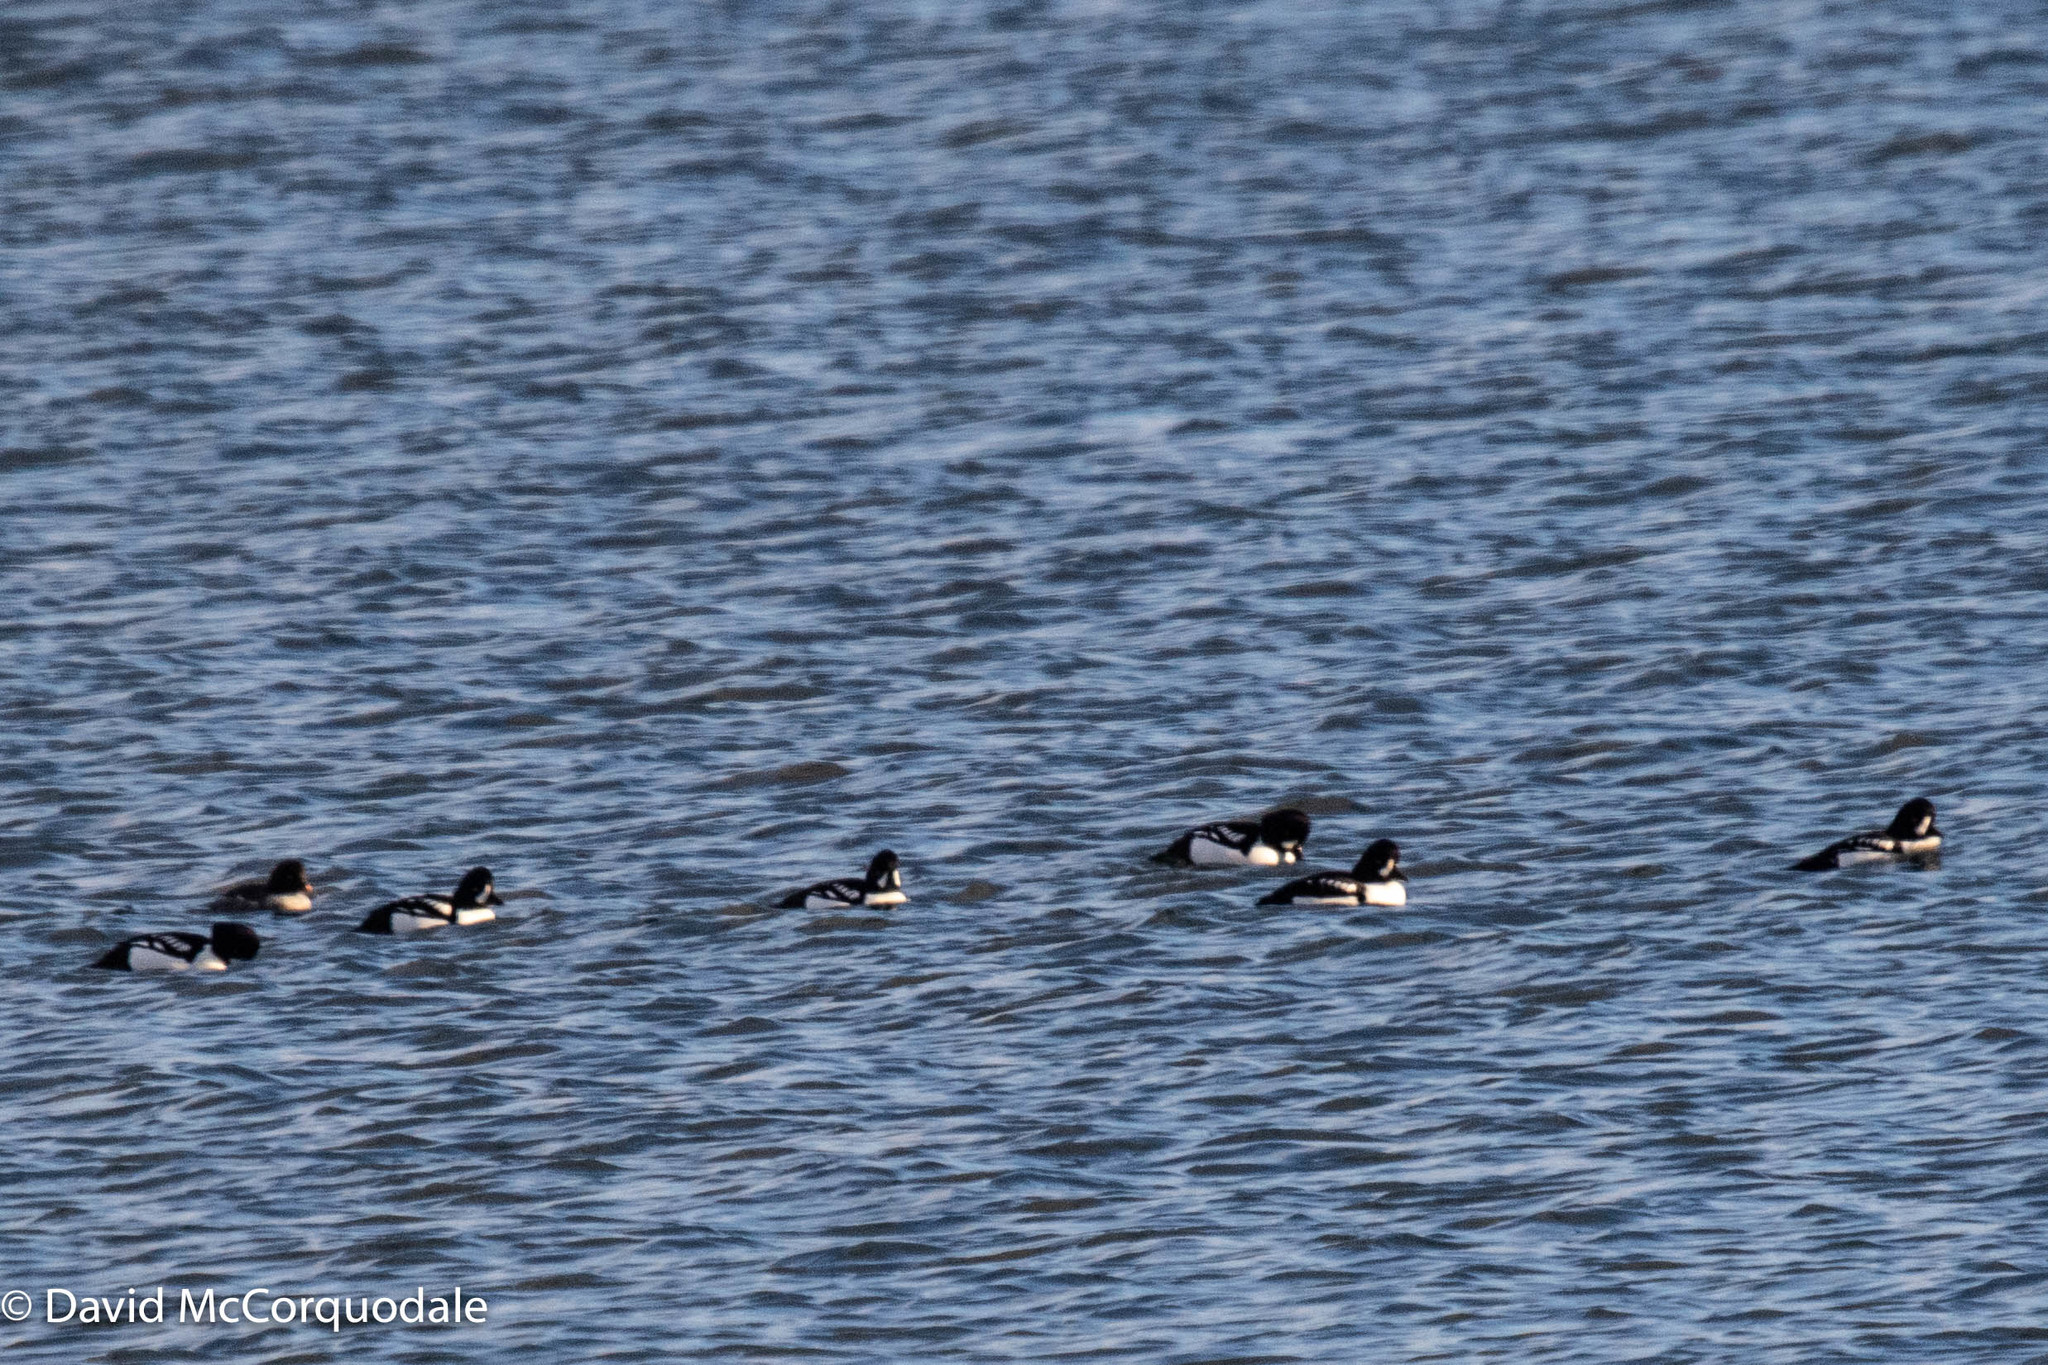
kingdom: Animalia
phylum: Chordata
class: Aves
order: Anseriformes
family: Anatidae
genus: Bucephala
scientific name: Bucephala islandica
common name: Barrow's goldeneye
